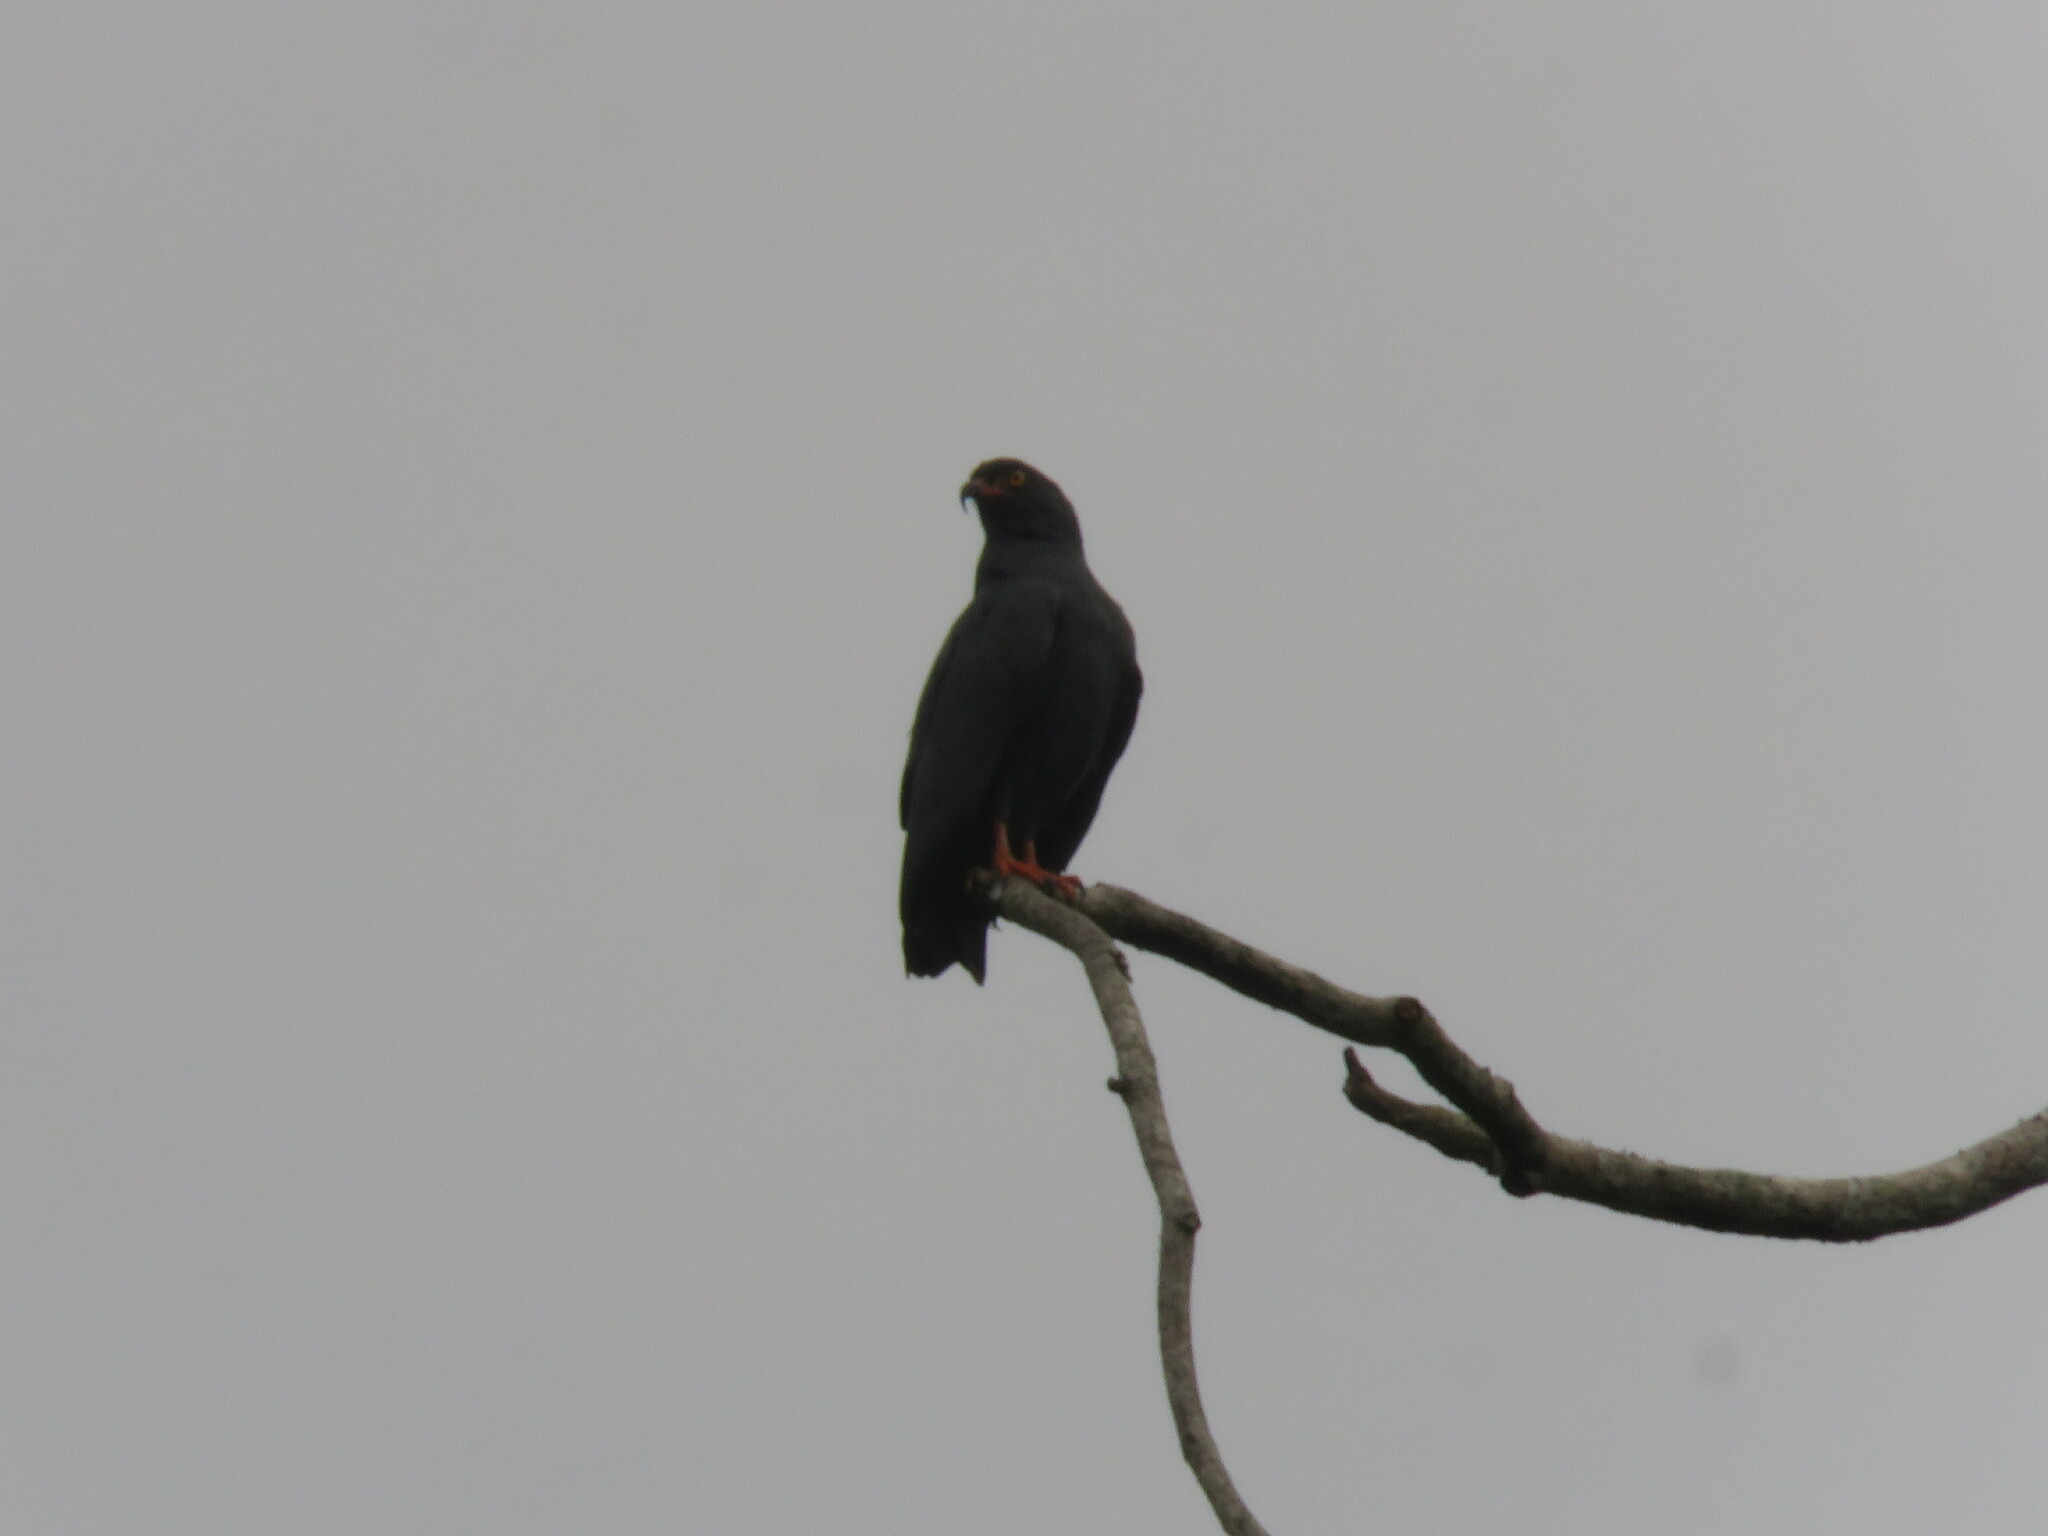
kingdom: Animalia
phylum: Chordata
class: Aves
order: Accipitriformes
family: Accipitridae
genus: Helicolestes
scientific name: Helicolestes hamatus
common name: Slender-billed kite
